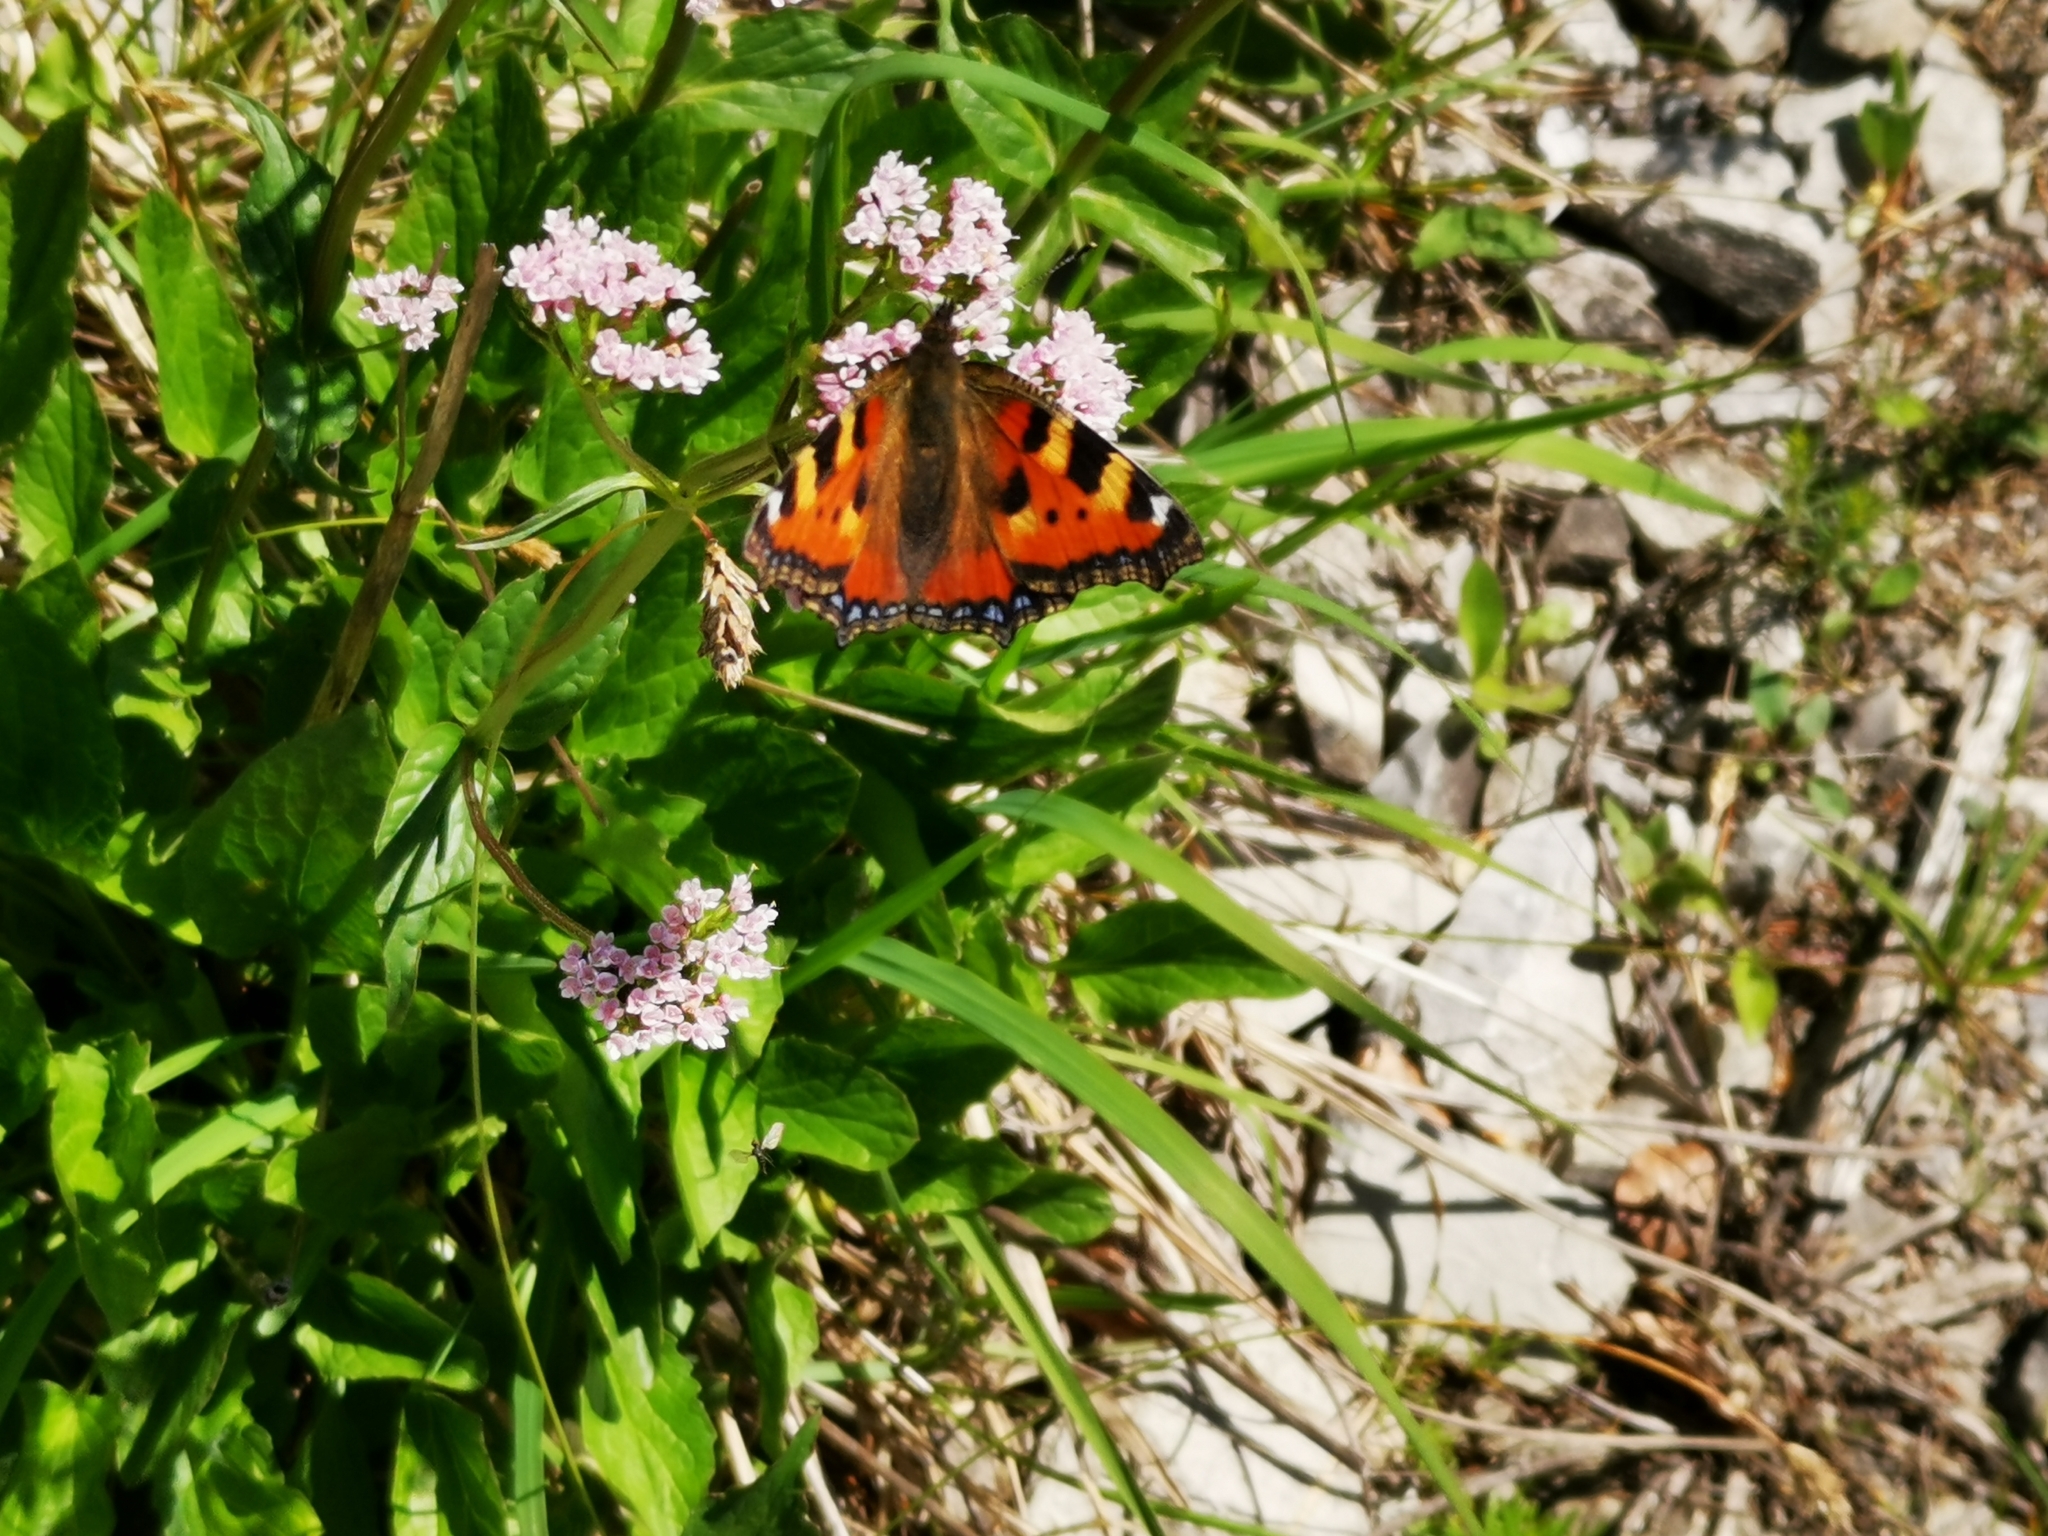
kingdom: Animalia
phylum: Arthropoda
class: Insecta
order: Lepidoptera
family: Nymphalidae
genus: Aglais
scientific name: Aglais urticae
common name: Small tortoiseshell
